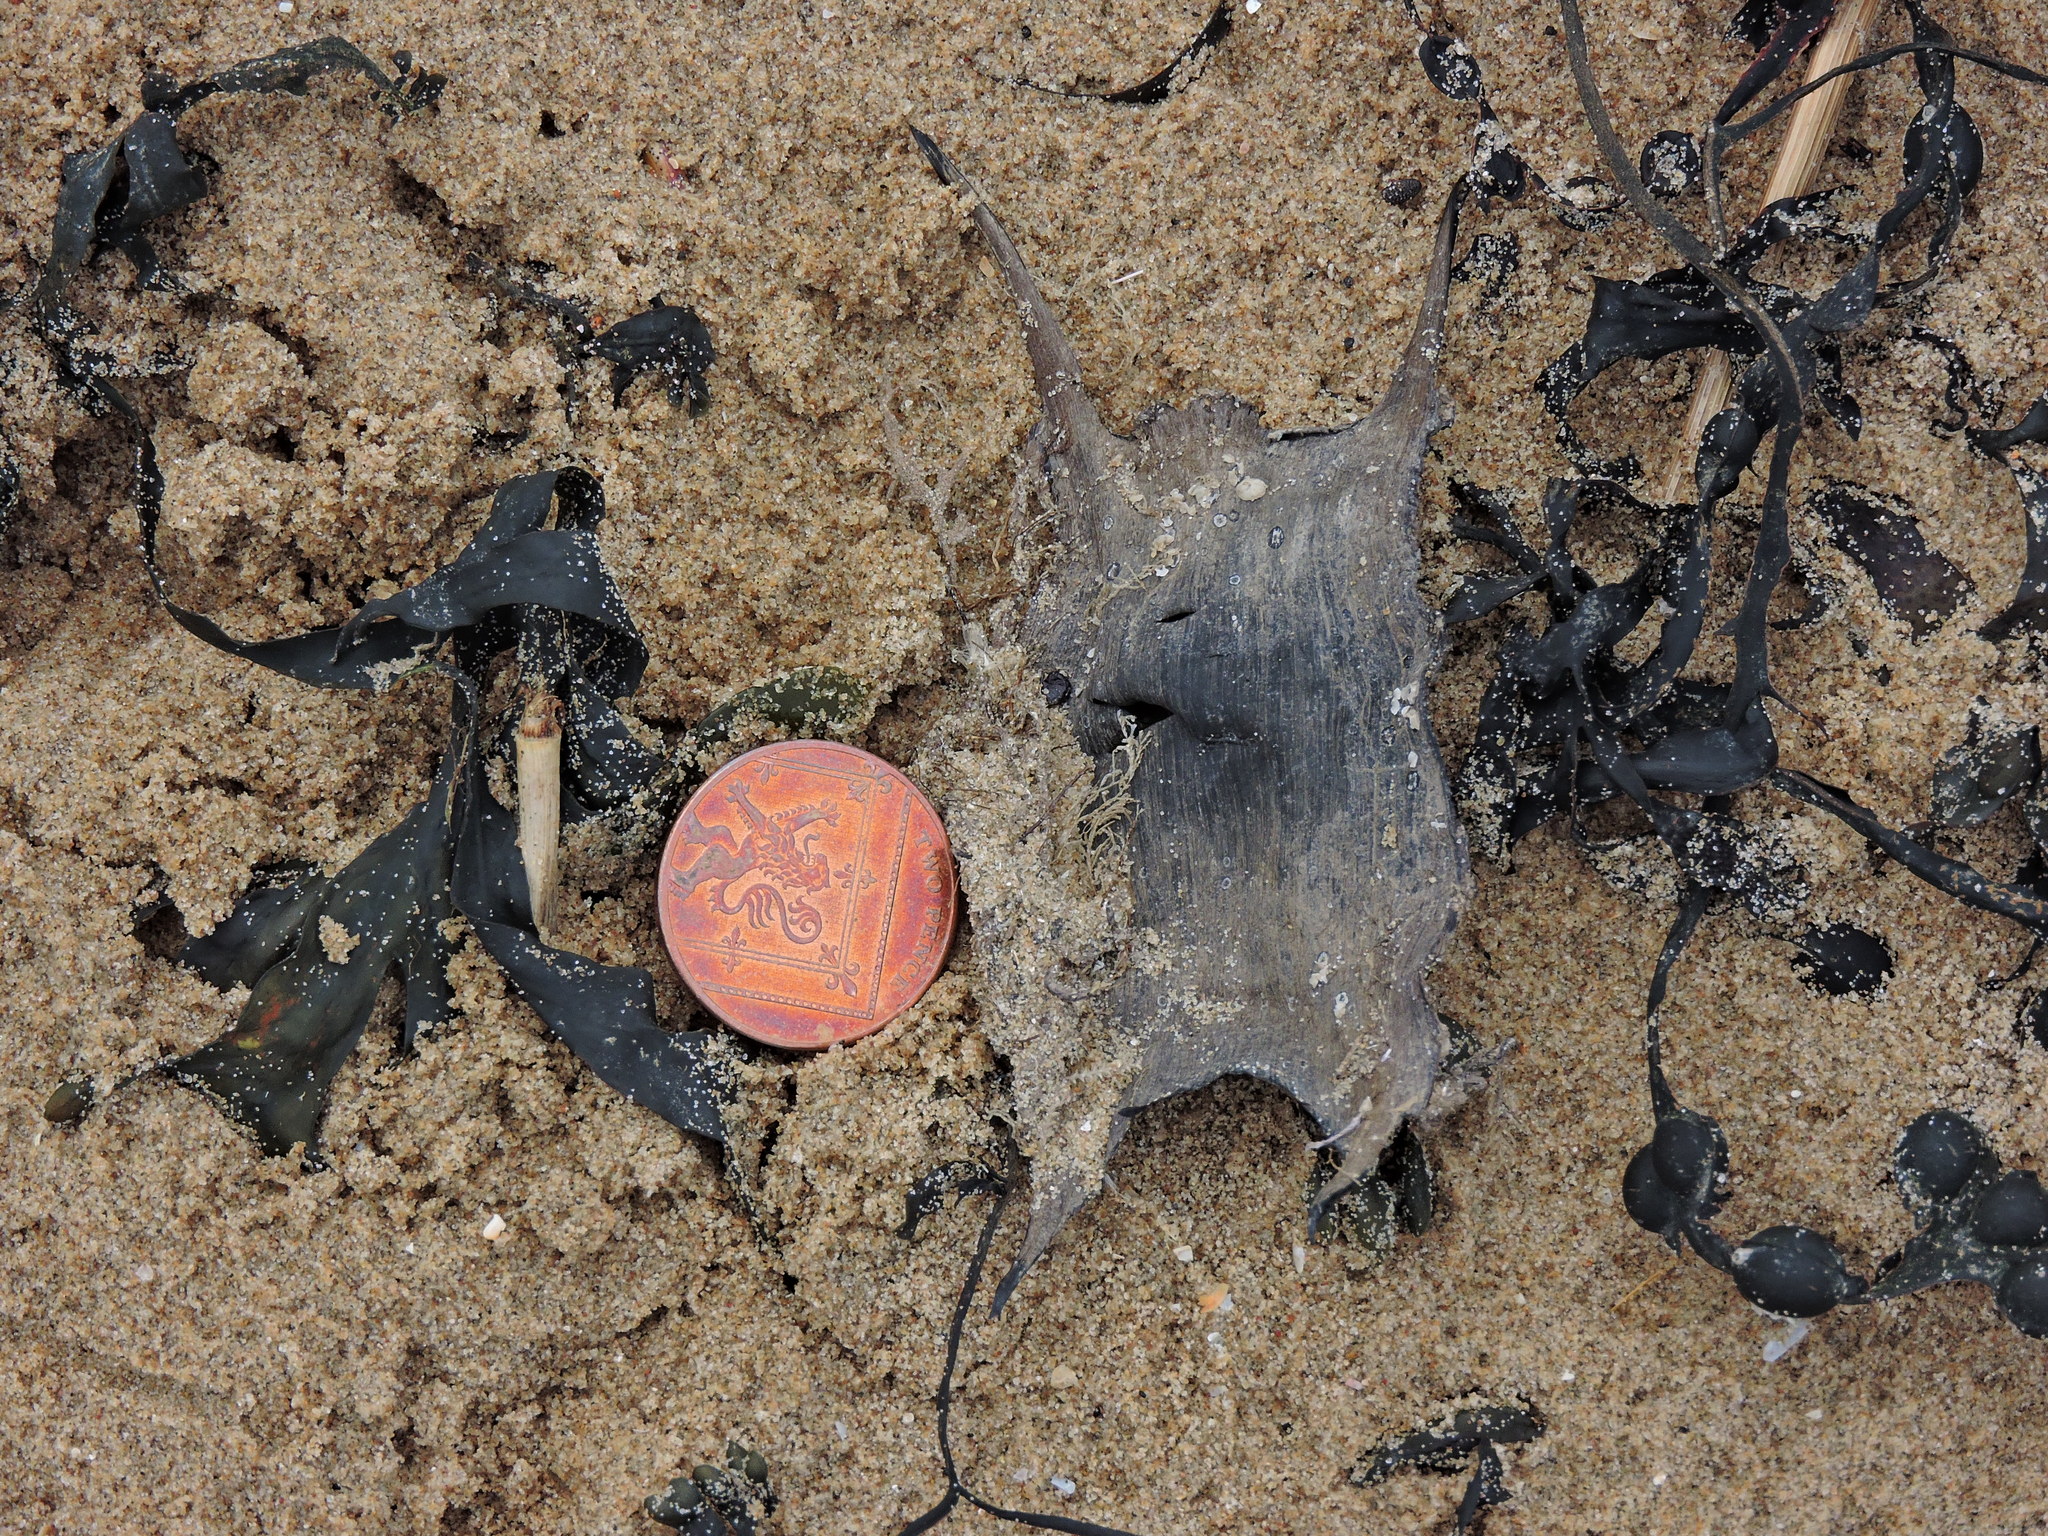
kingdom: Animalia
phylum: Chordata
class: Elasmobranchii
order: Rajiformes
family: Rajidae
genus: Raja
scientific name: Raja clavata
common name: Thornback ray
